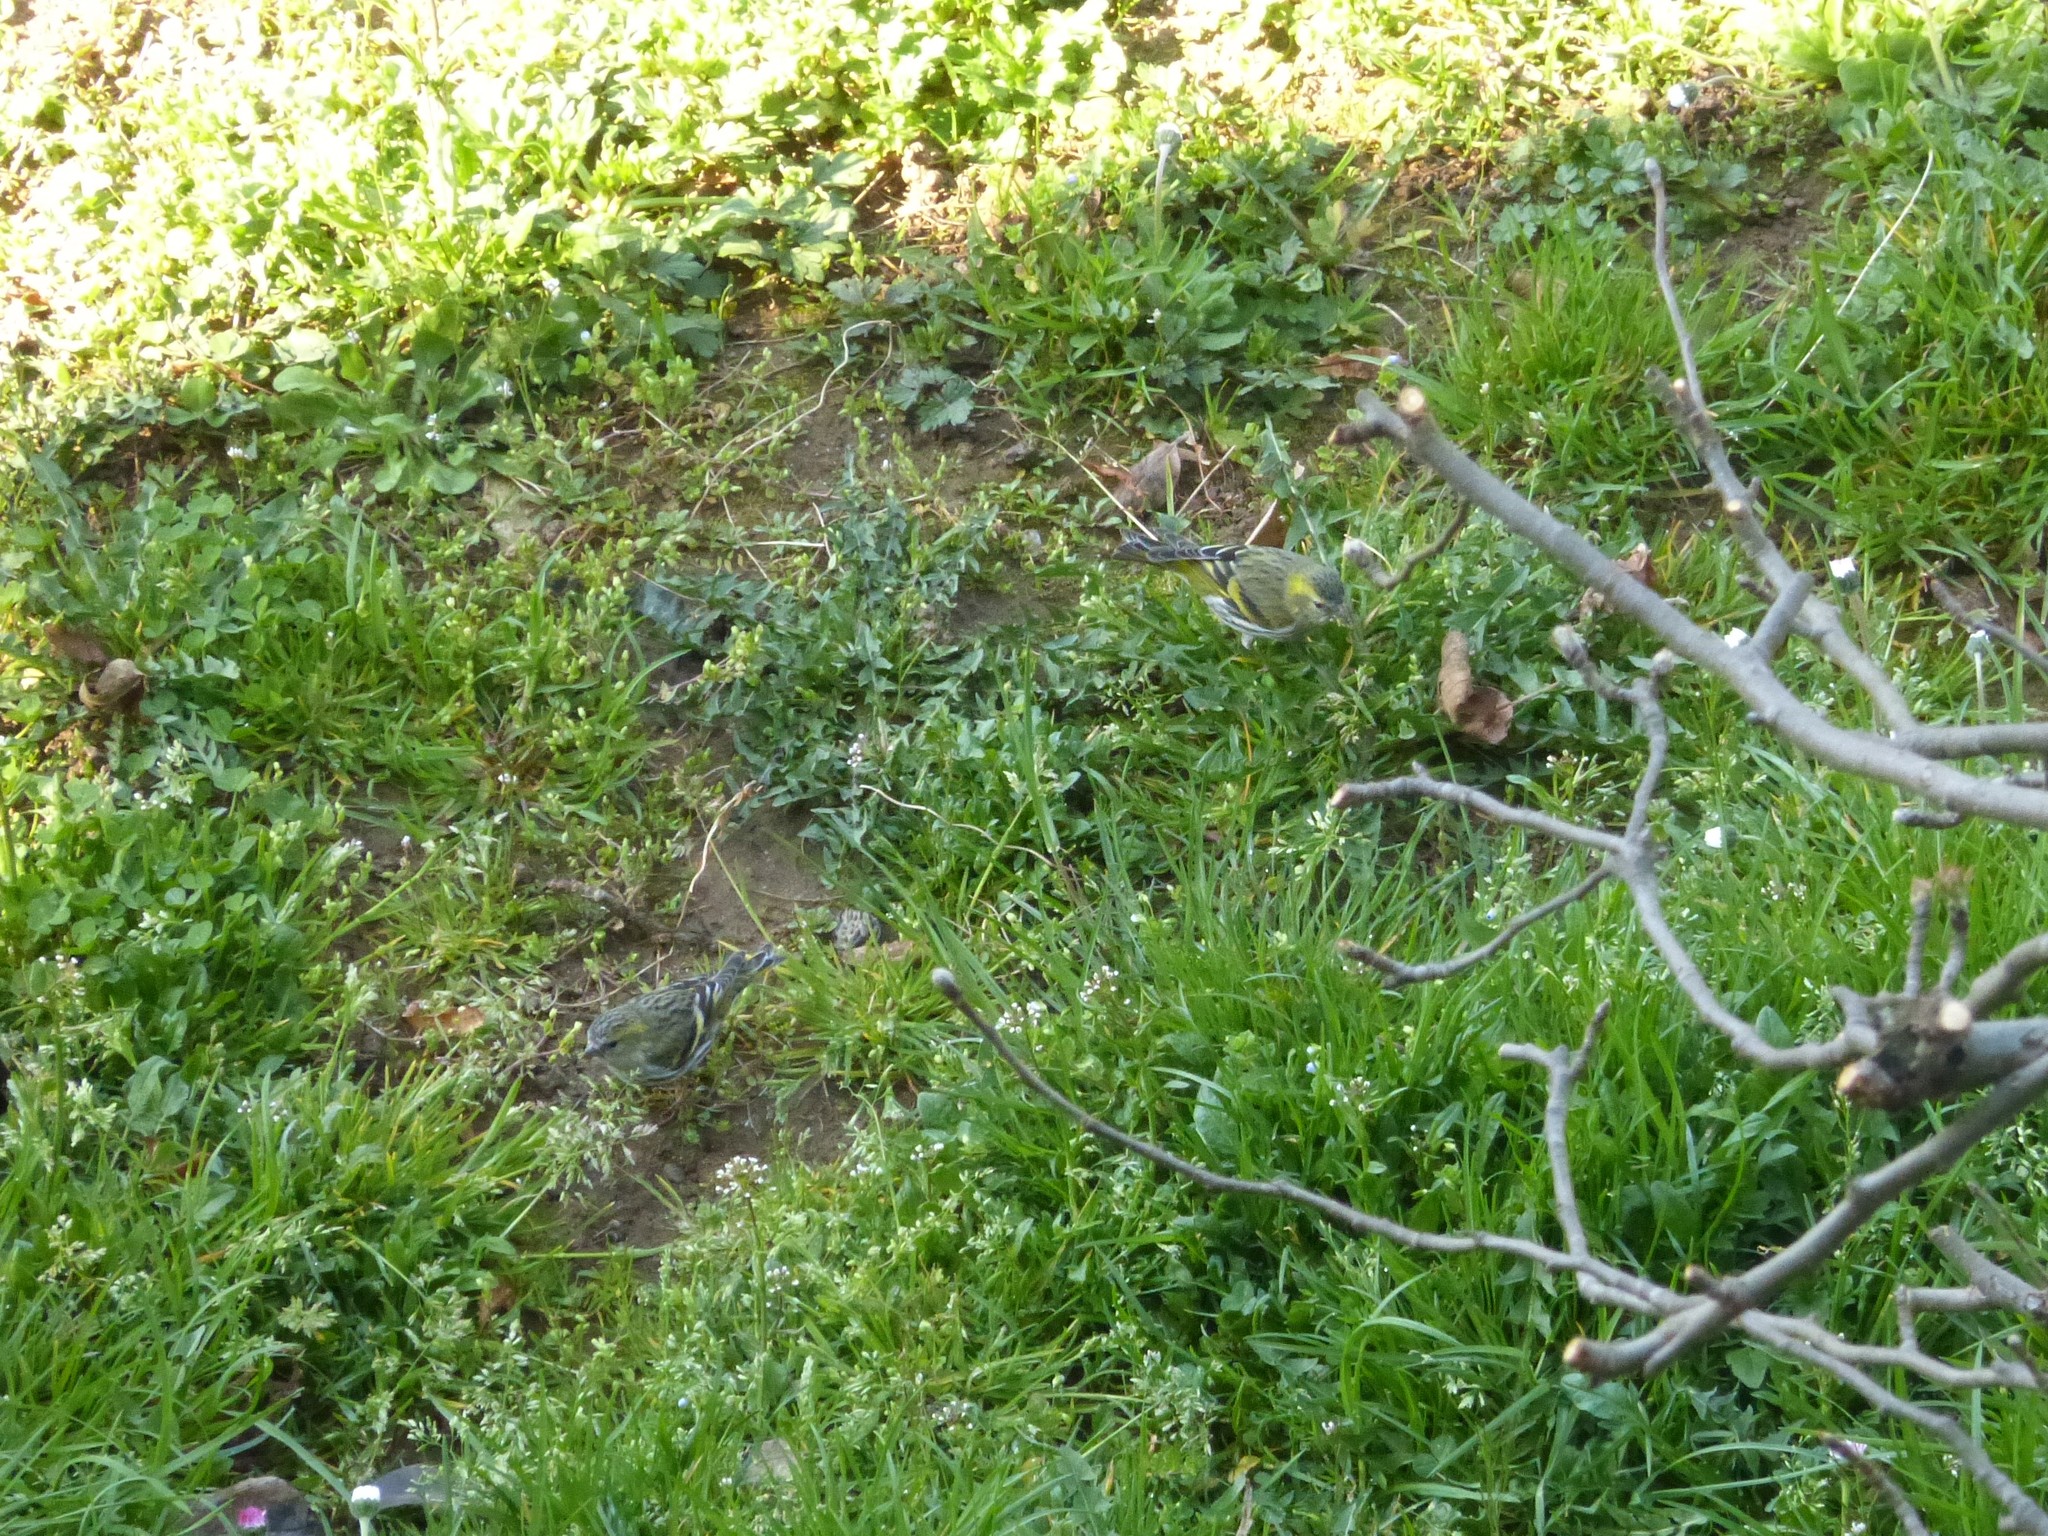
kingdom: Animalia
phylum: Chordata
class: Aves
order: Passeriformes
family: Fringillidae
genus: Spinus
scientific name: Spinus spinus
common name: Eurasian siskin
